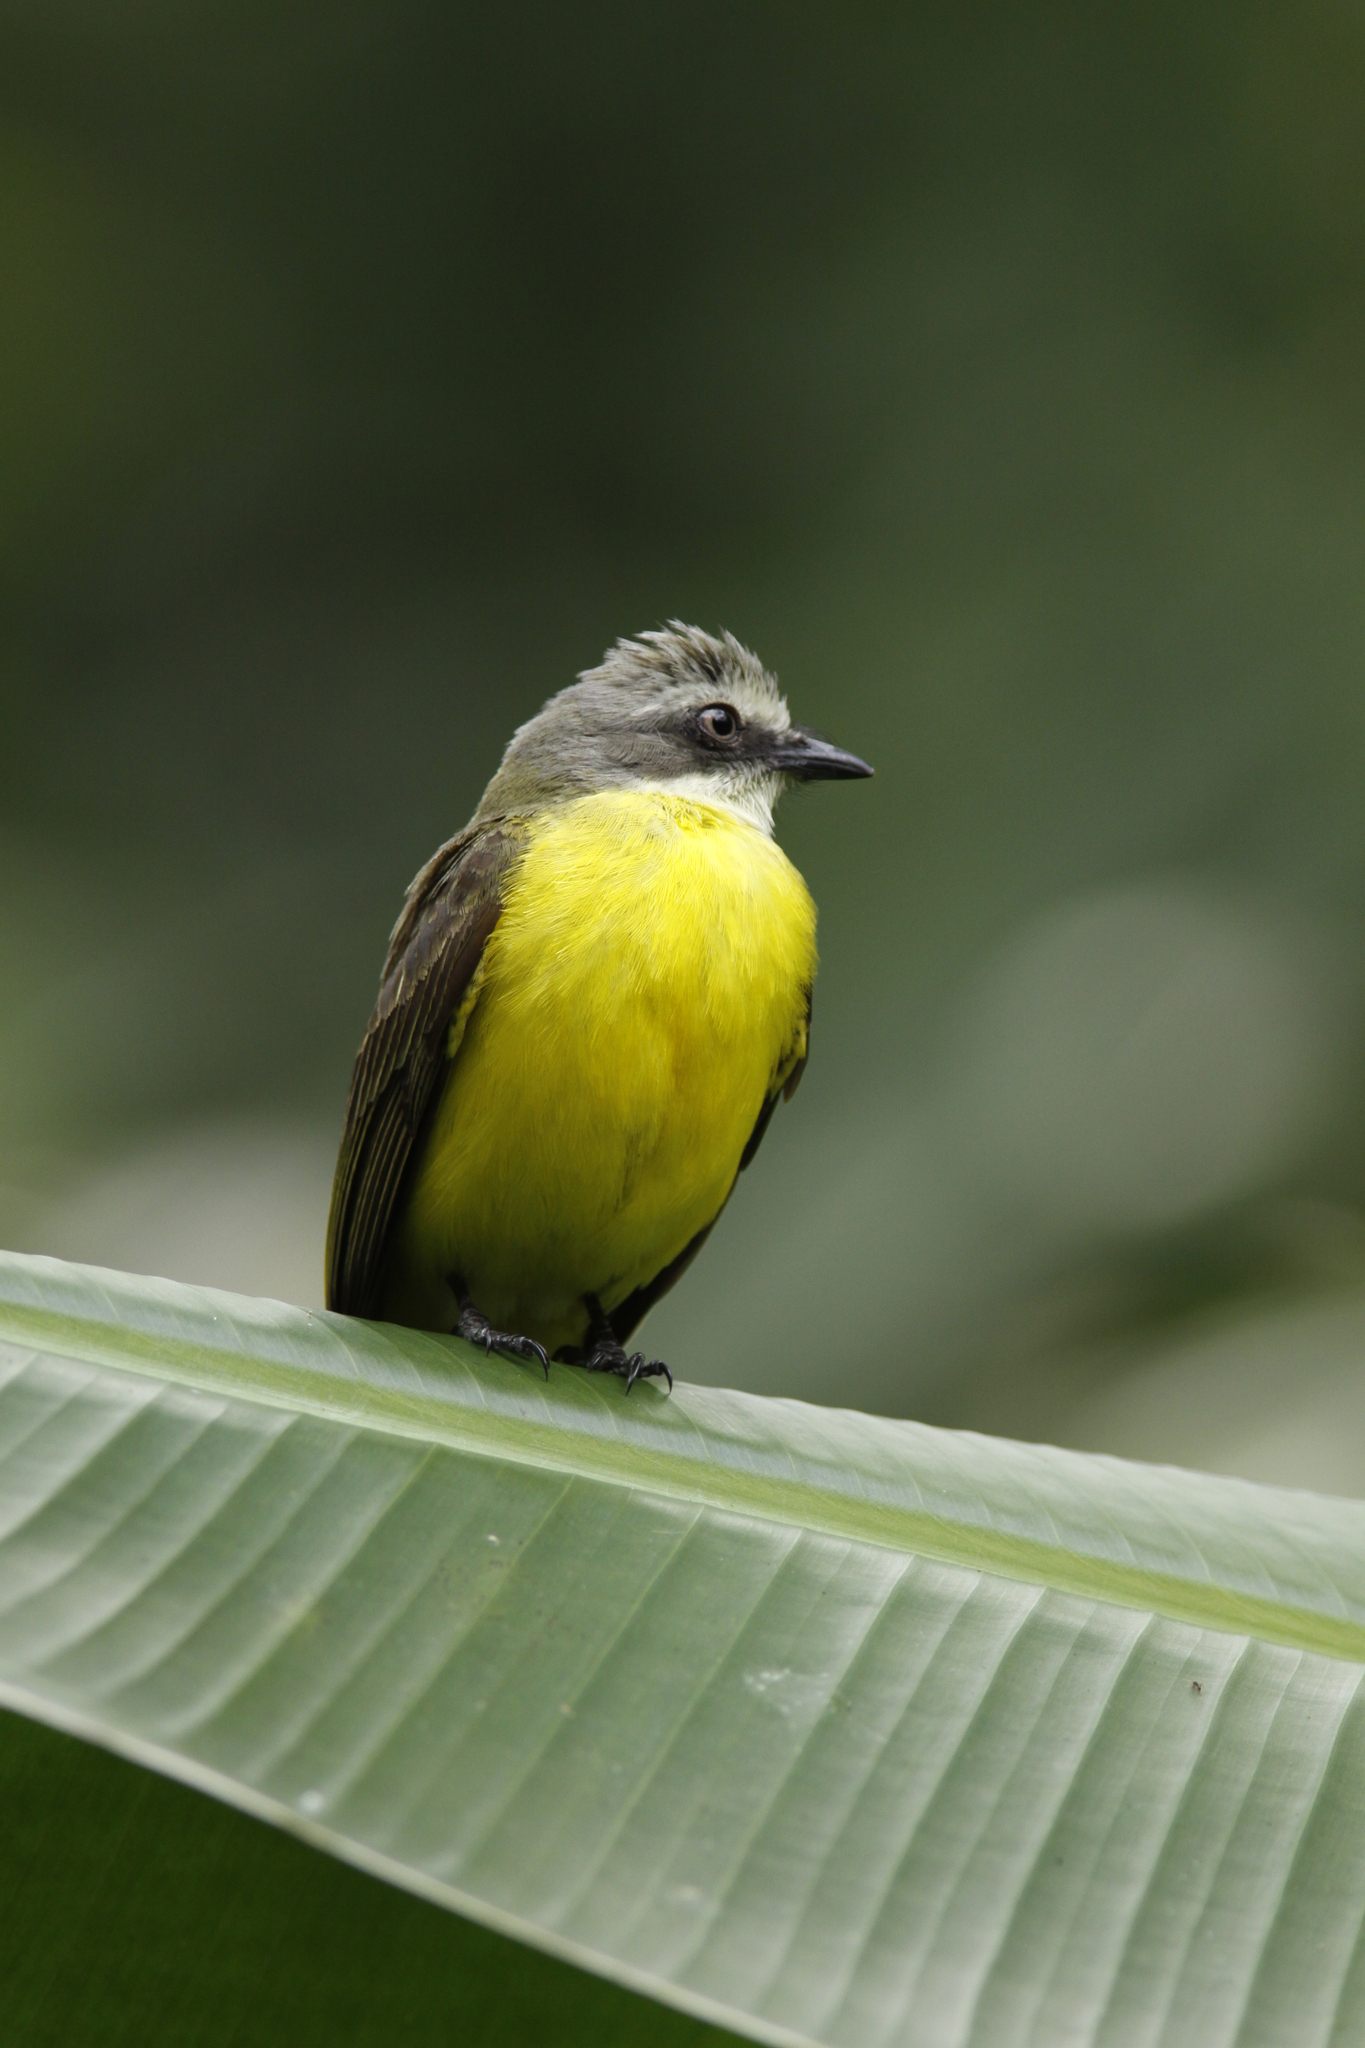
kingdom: Animalia
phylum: Chordata
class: Aves
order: Passeriformes
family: Tyrannidae
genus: Myiozetetes
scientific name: Myiozetetes granadensis
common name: Gray-capped flycatcher
